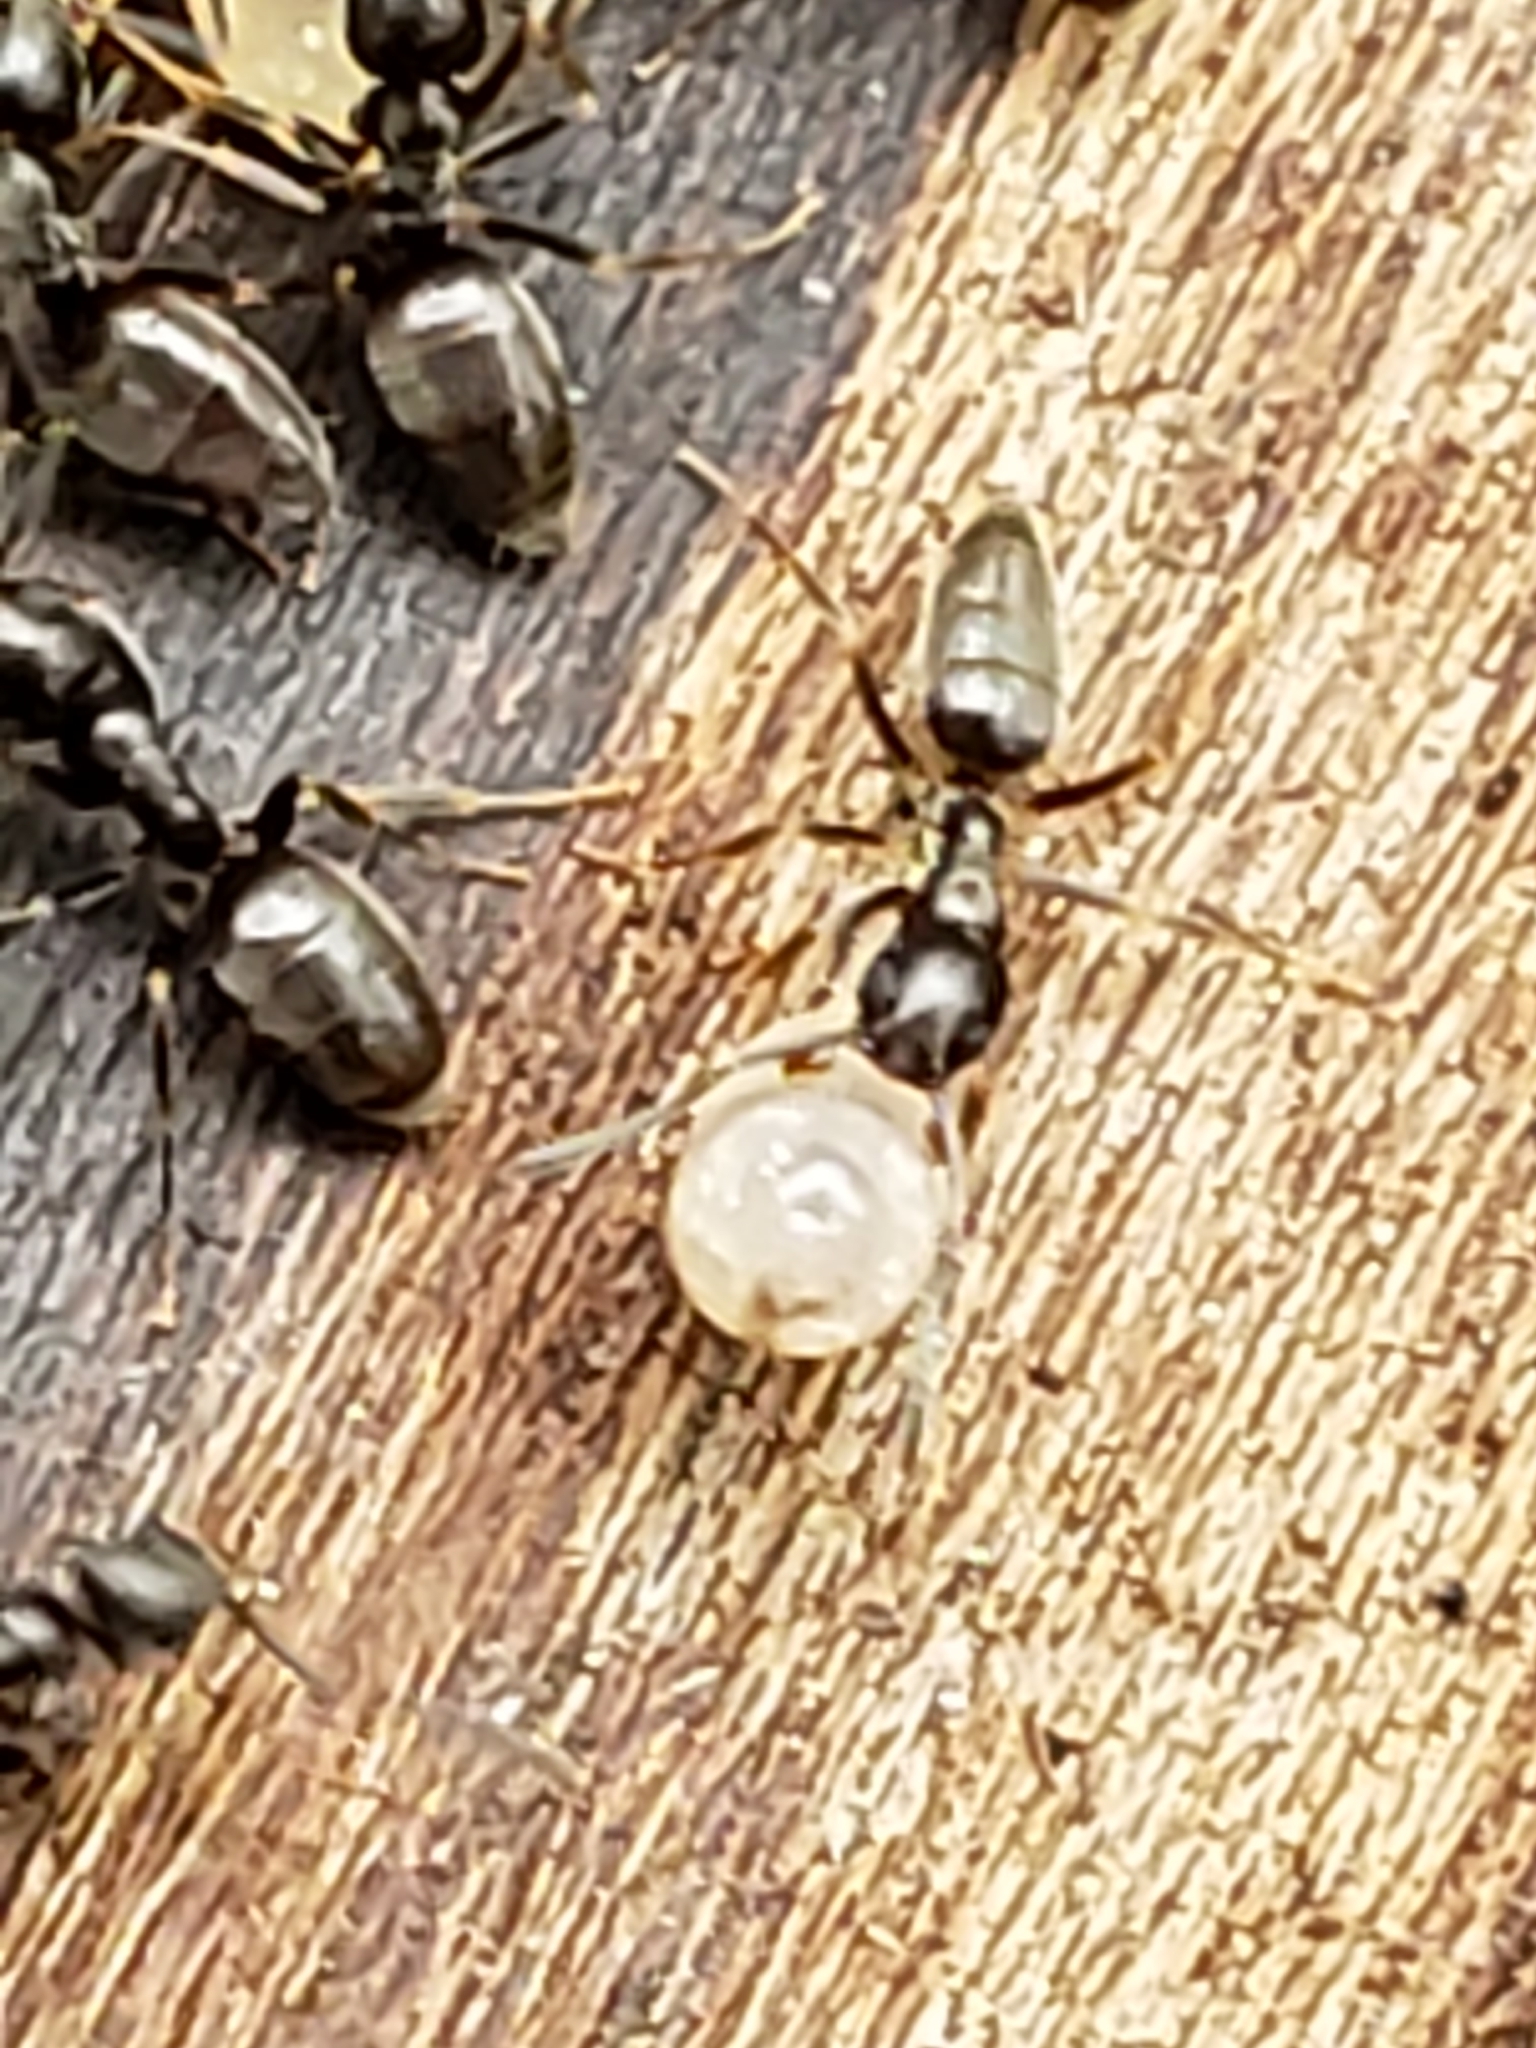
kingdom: Animalia
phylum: Arthropoda
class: Insecta
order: Hymenoptera
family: Formicidae
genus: Tapinoma
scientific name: Tapinoma sessile
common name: Odorous house ant
